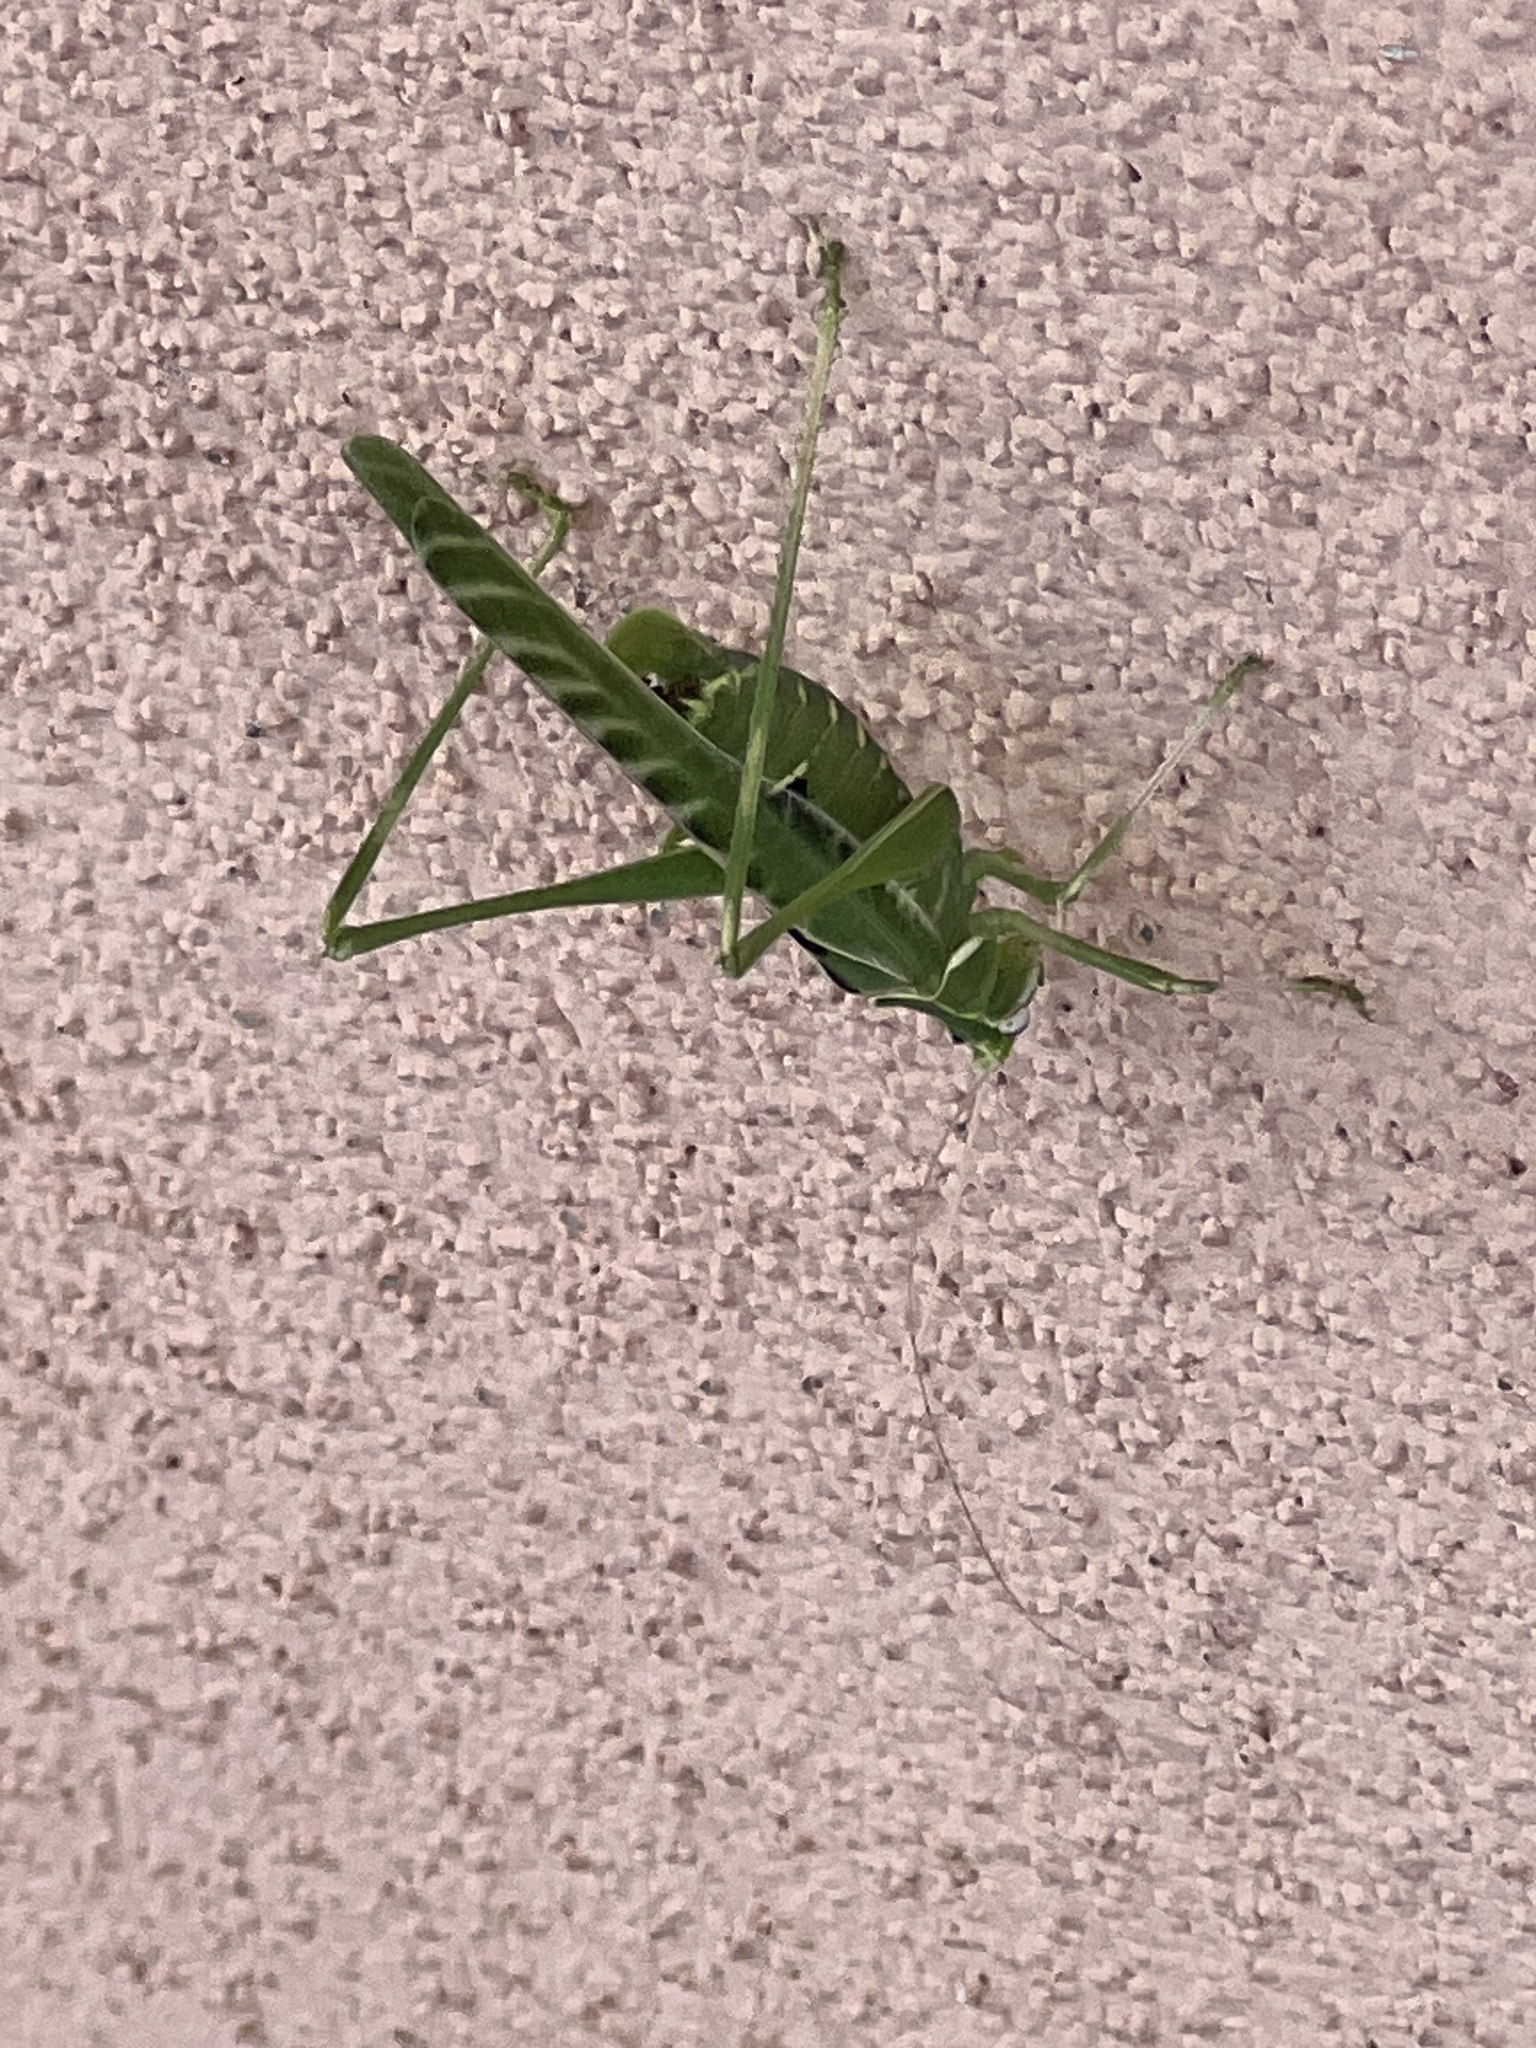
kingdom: Animalia
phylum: Arthropoda
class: Insecta
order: Orthoptera
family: Tettigoniidae
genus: Insara
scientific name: Insara elegans
